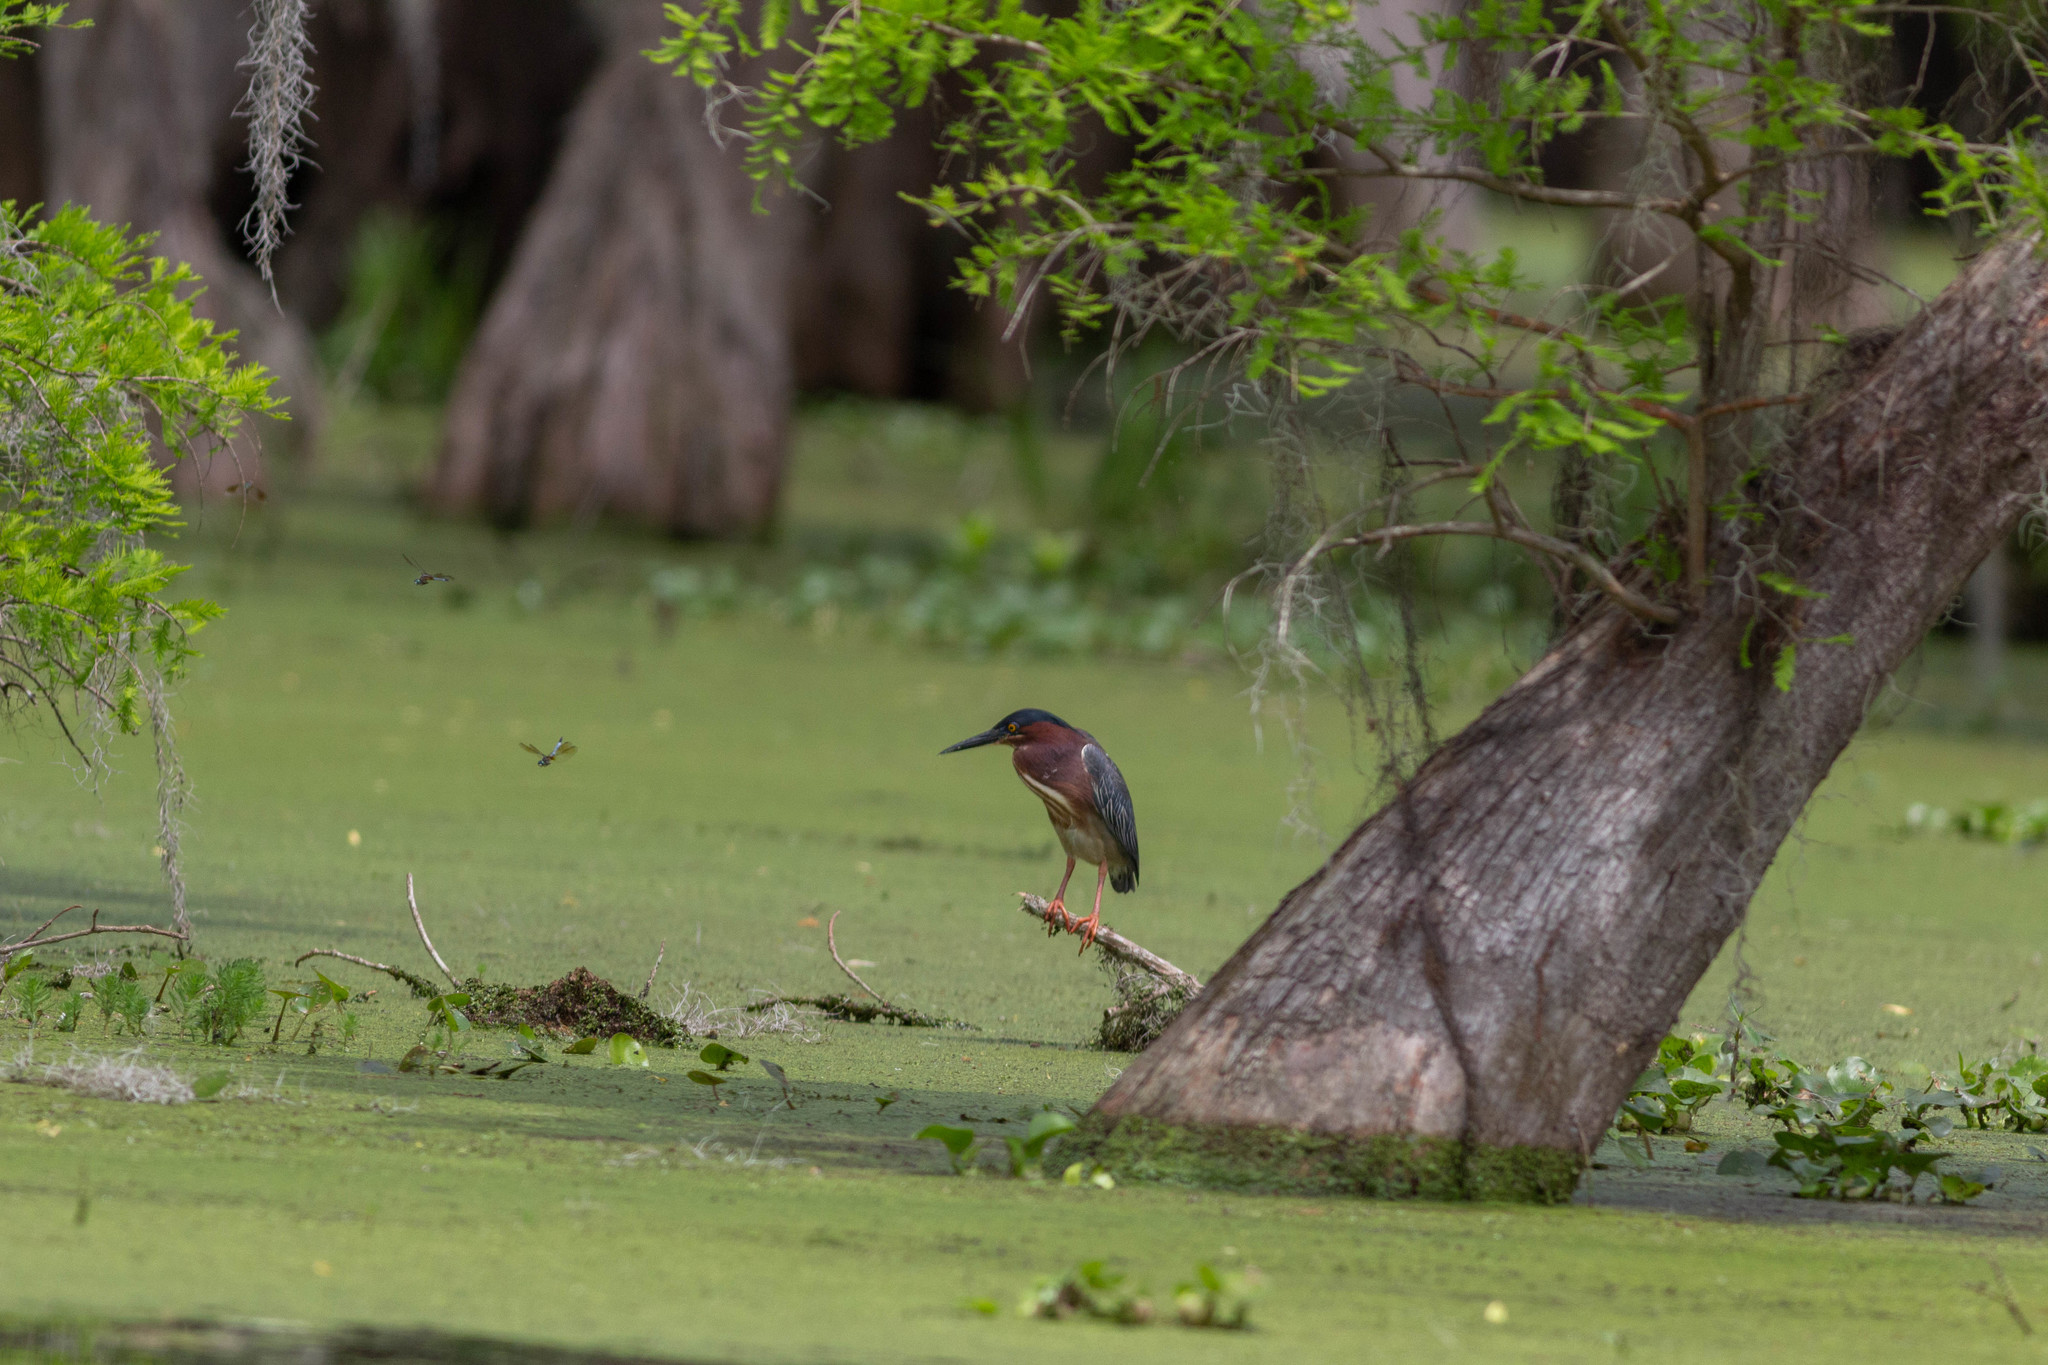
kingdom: Animalia
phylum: Chordata
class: Aves
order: Pelecaniformes
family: Ardeidae
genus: Butorides
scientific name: Butorides virescens
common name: Green heron
